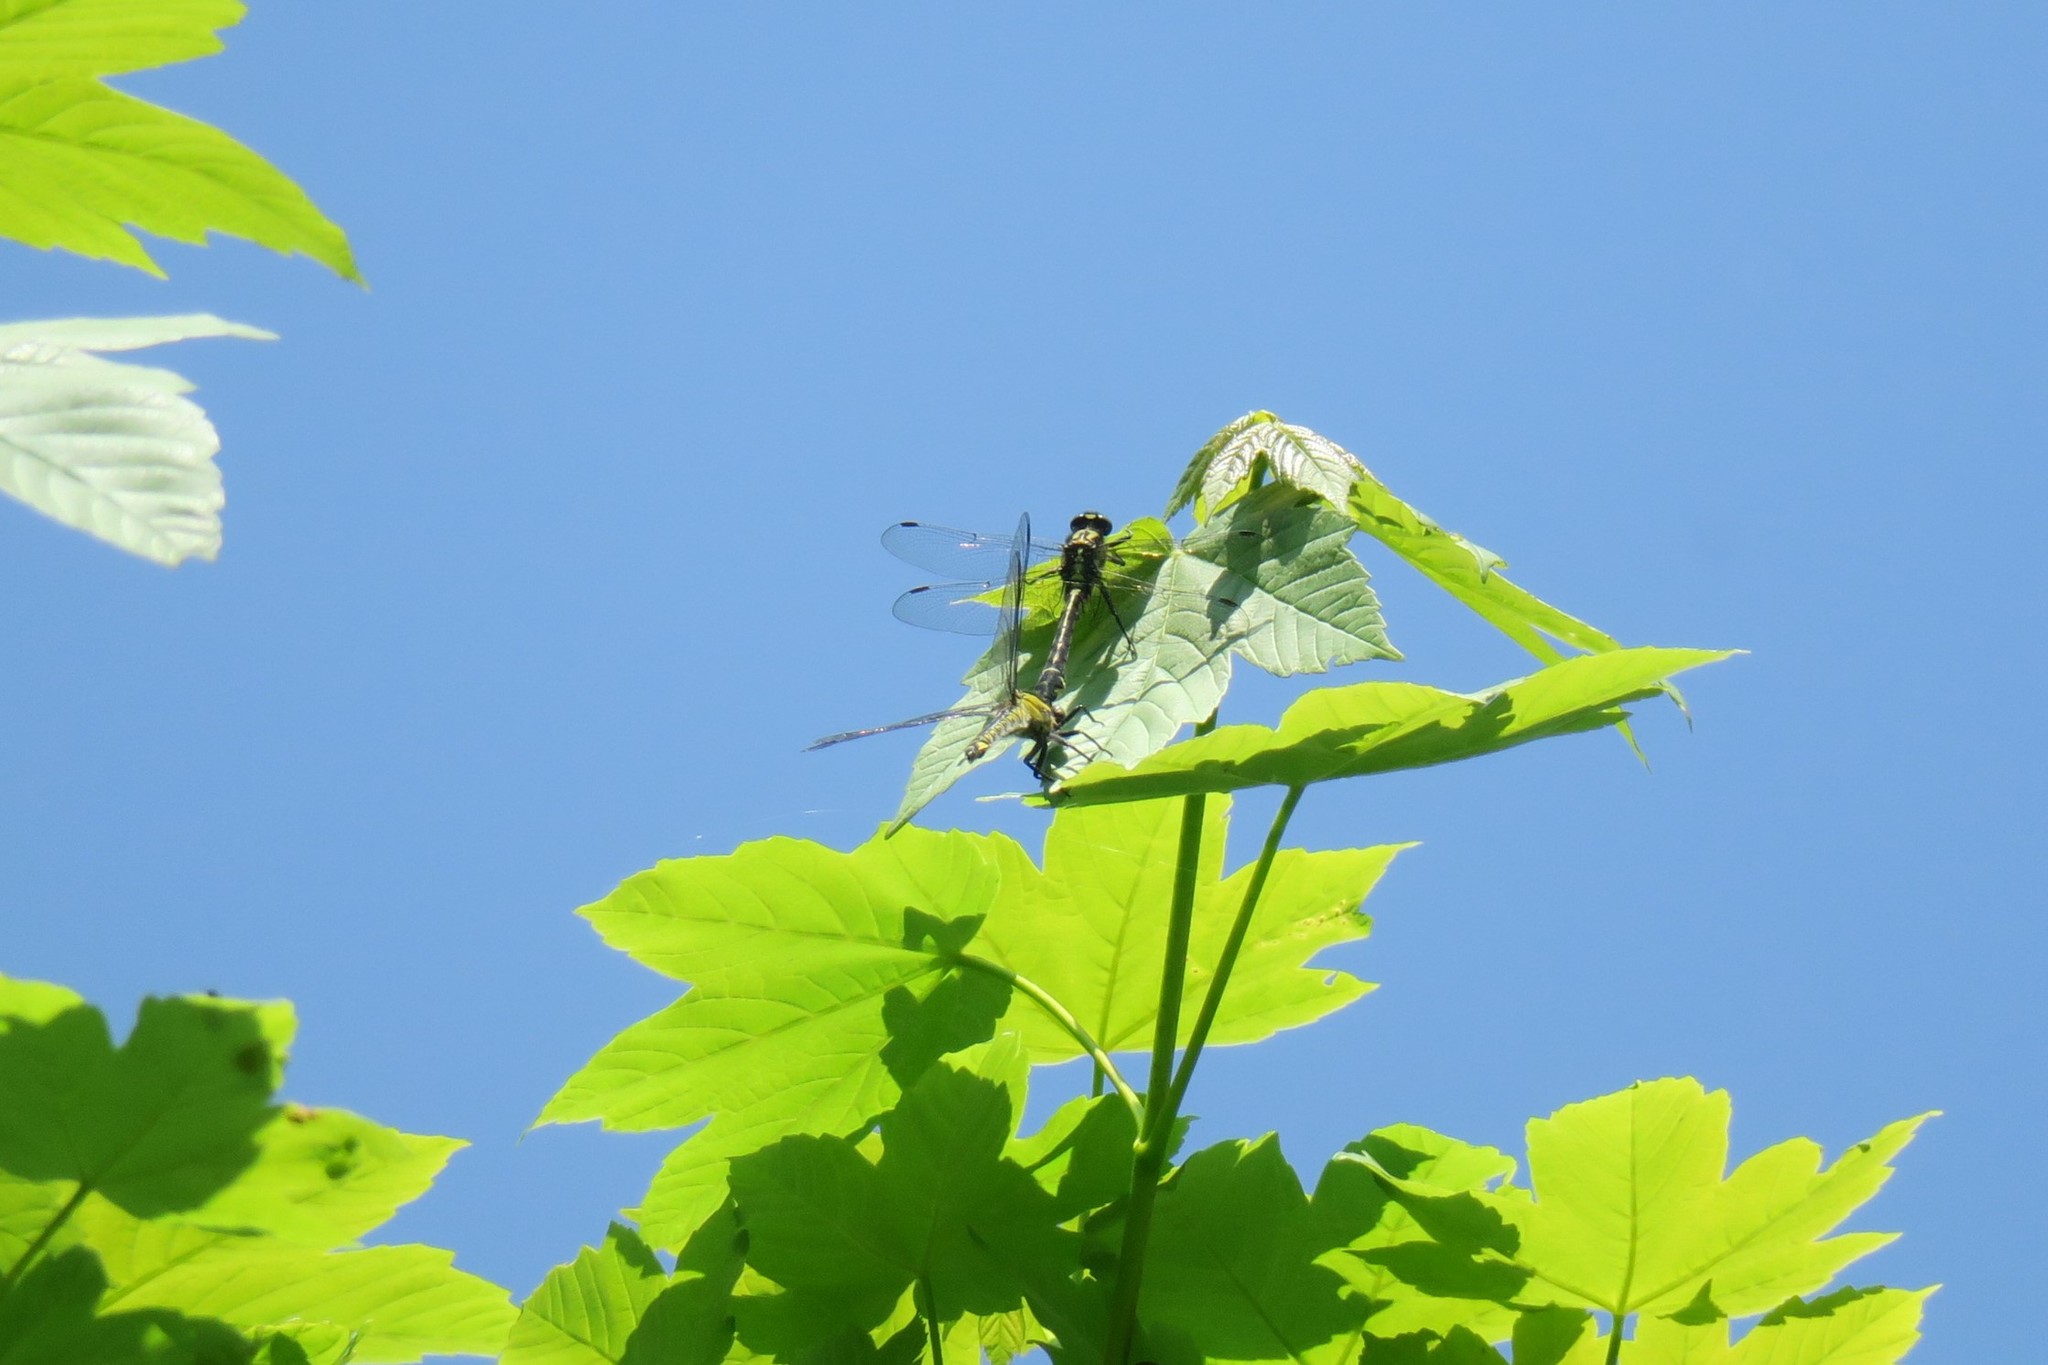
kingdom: Animalia
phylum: Arthropoda
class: Insecta
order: Odonata
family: Gomphidae
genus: Gomphus
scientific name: Gomphus vulgatissimus
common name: Club-tailed dragonfly
